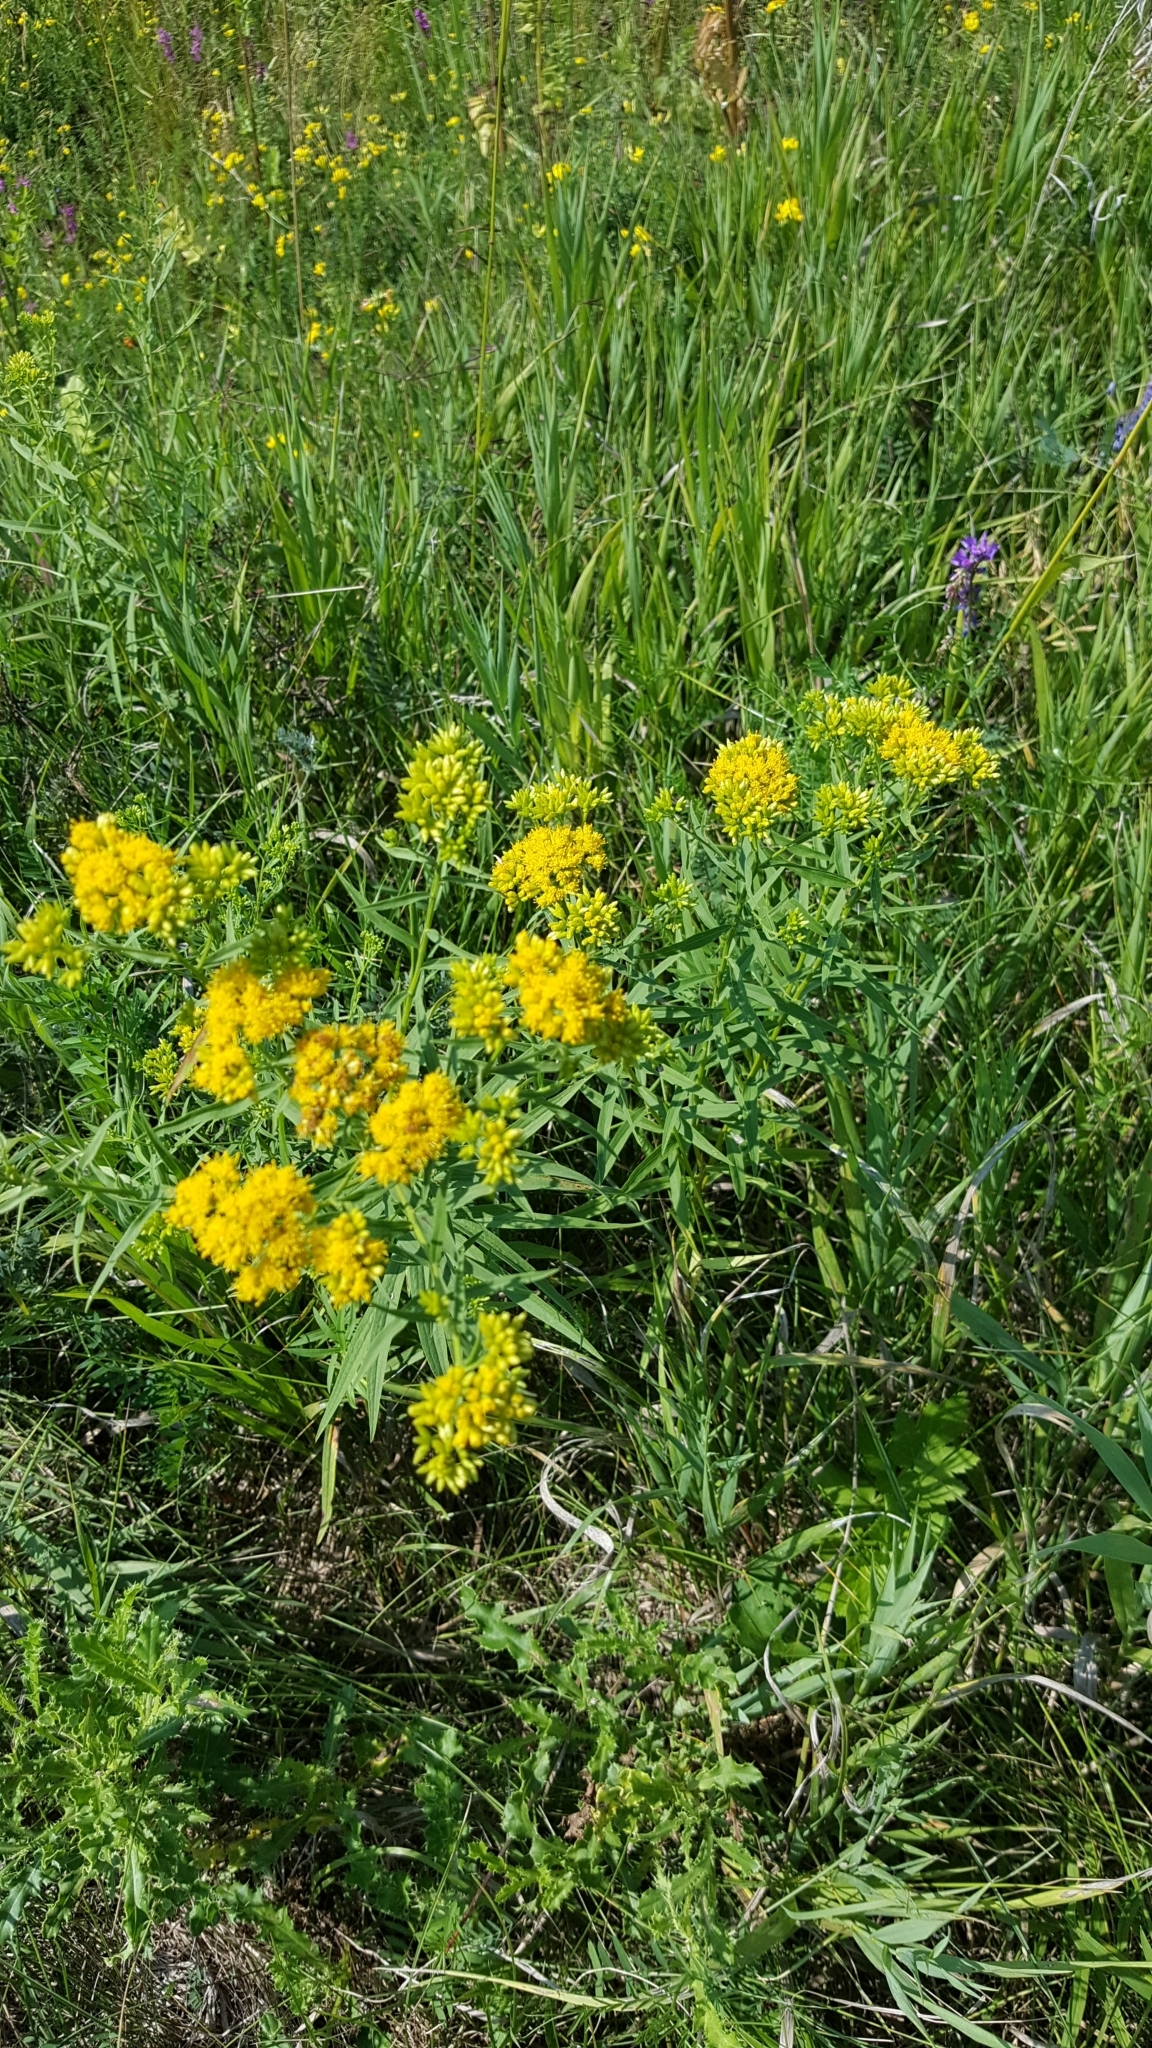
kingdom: Plantae
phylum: Tracheophyta
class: Magnoliopsida
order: Asterales
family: Asteraceae
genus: Euthamia
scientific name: Euthamia graminifolia
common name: Common goldentop
